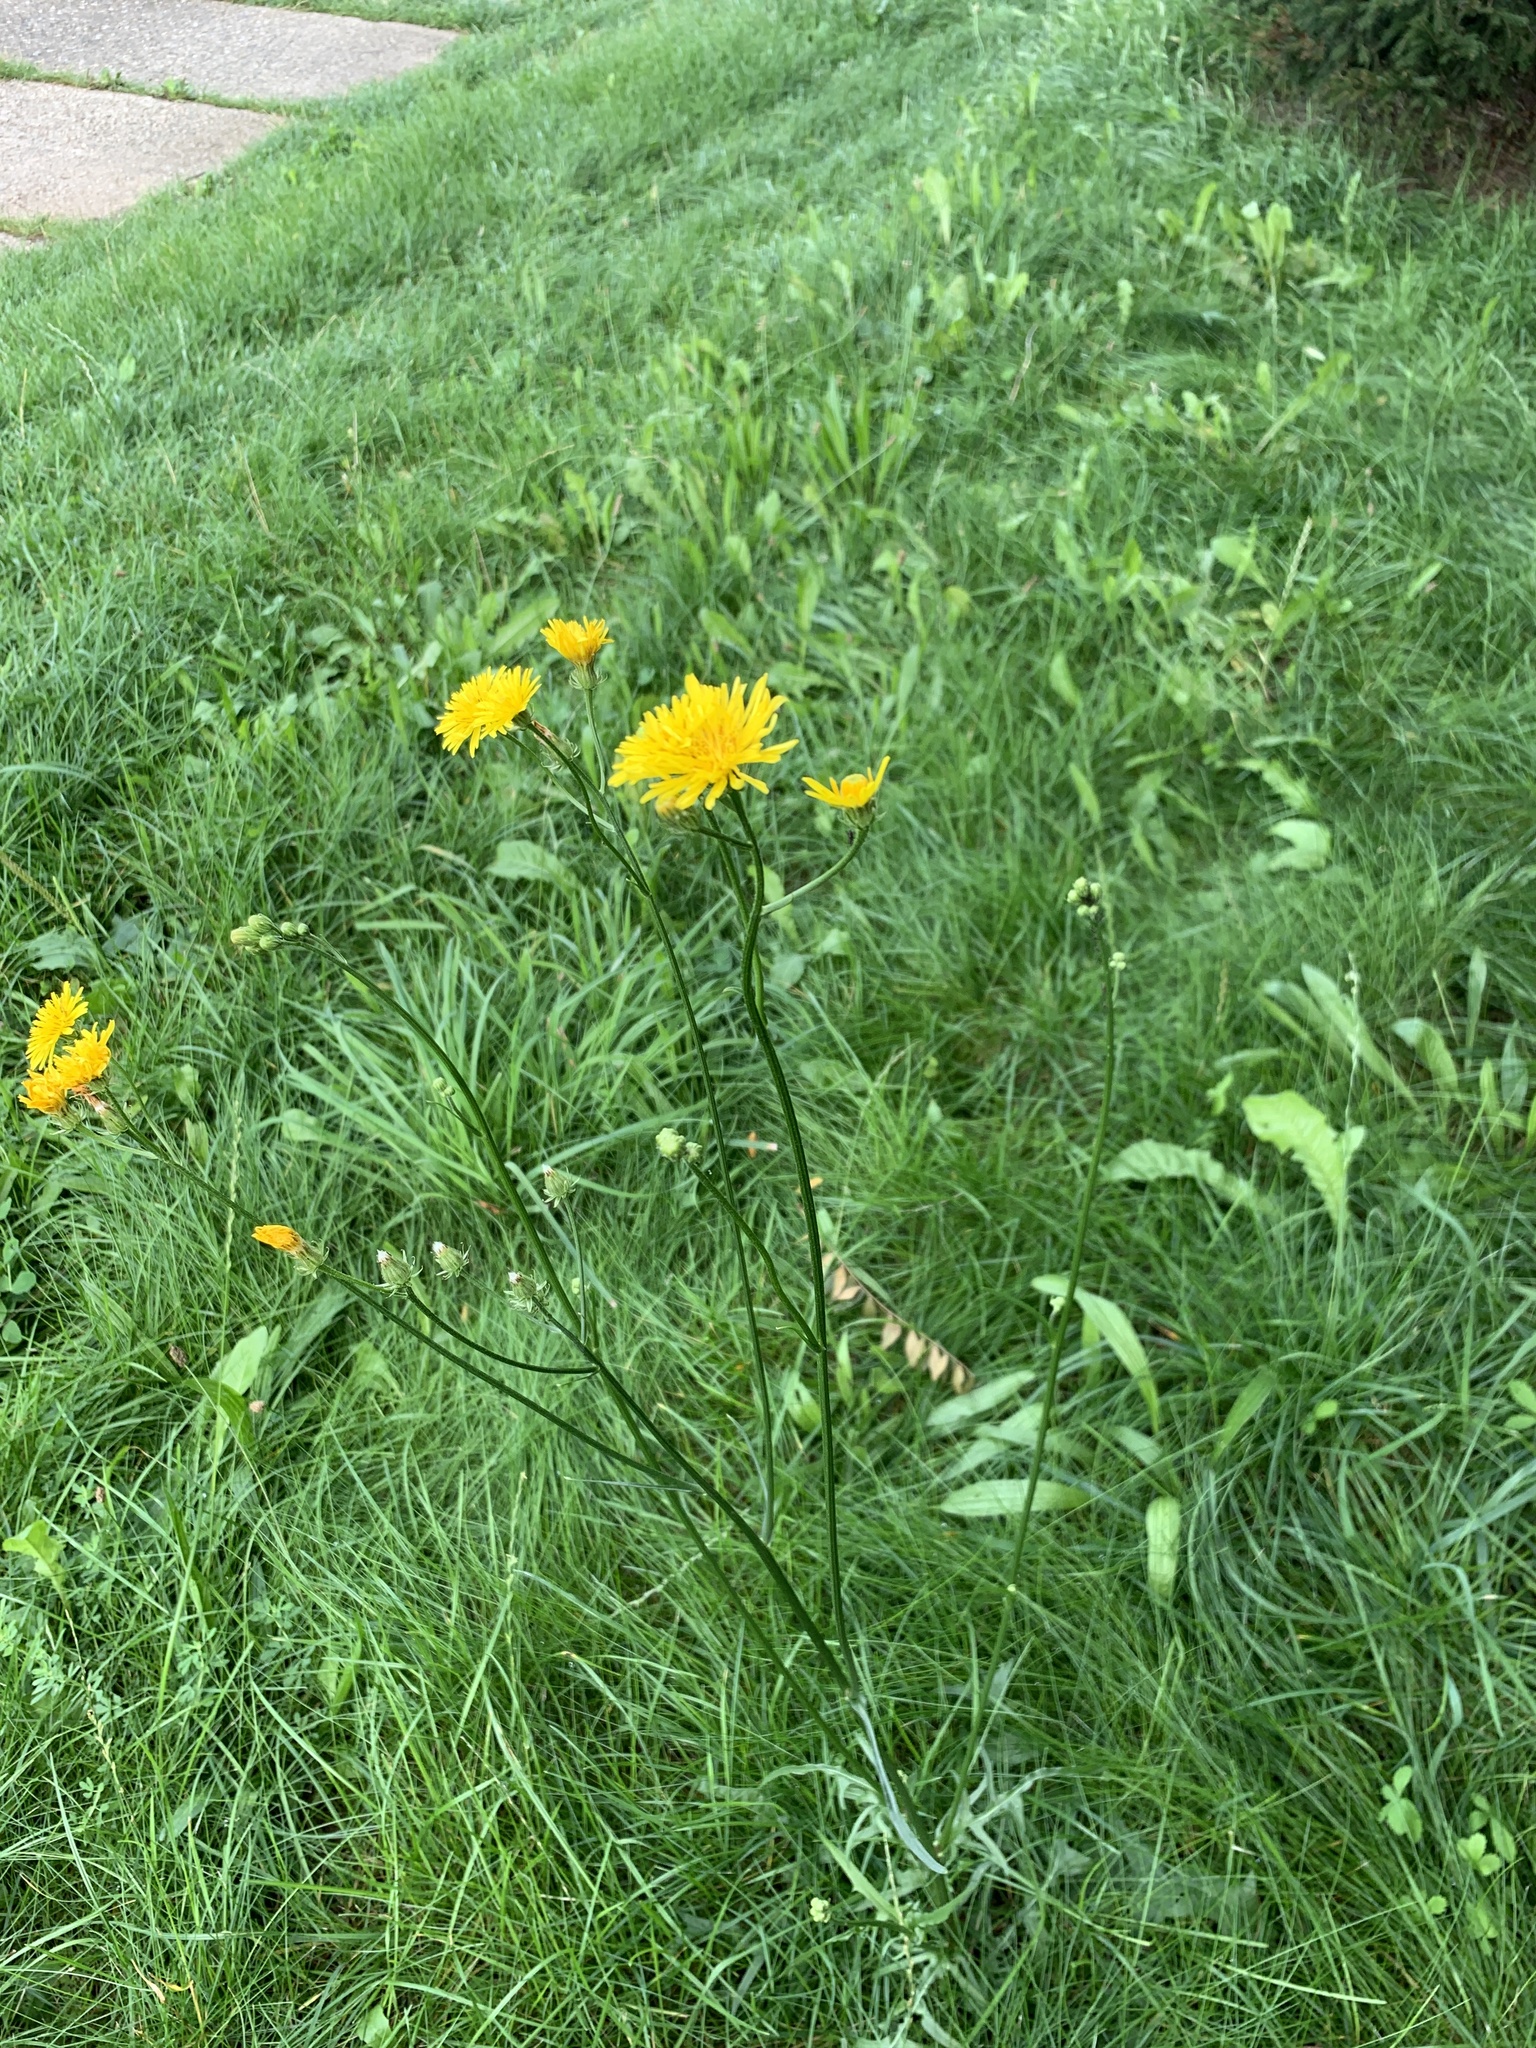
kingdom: Plantae
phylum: Tracheophyta
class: Magnoliopsida
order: Asterales
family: Asteraceae
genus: Crepis
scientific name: Crepis biennis
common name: Rough hawk's-beard
